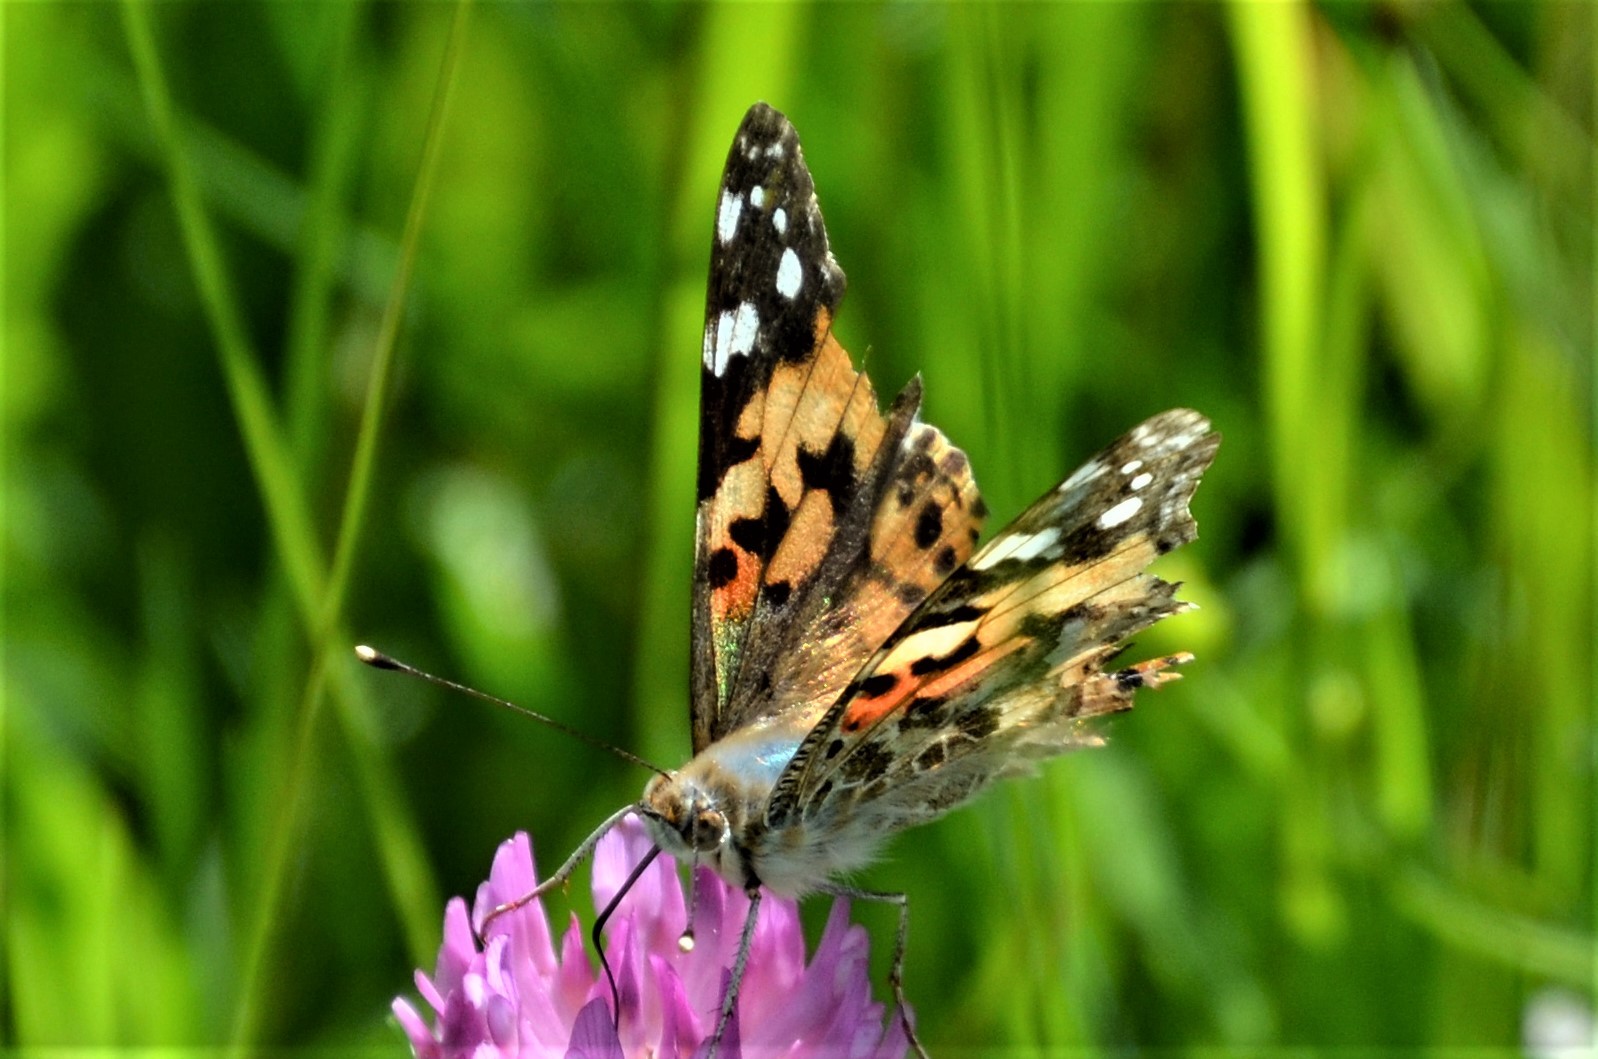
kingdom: Animalia
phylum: Arthropoda
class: Insecta
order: Lepidoptera
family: Nymphalidae
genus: Vanessa
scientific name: Vanessa cardui
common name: Painted lady
